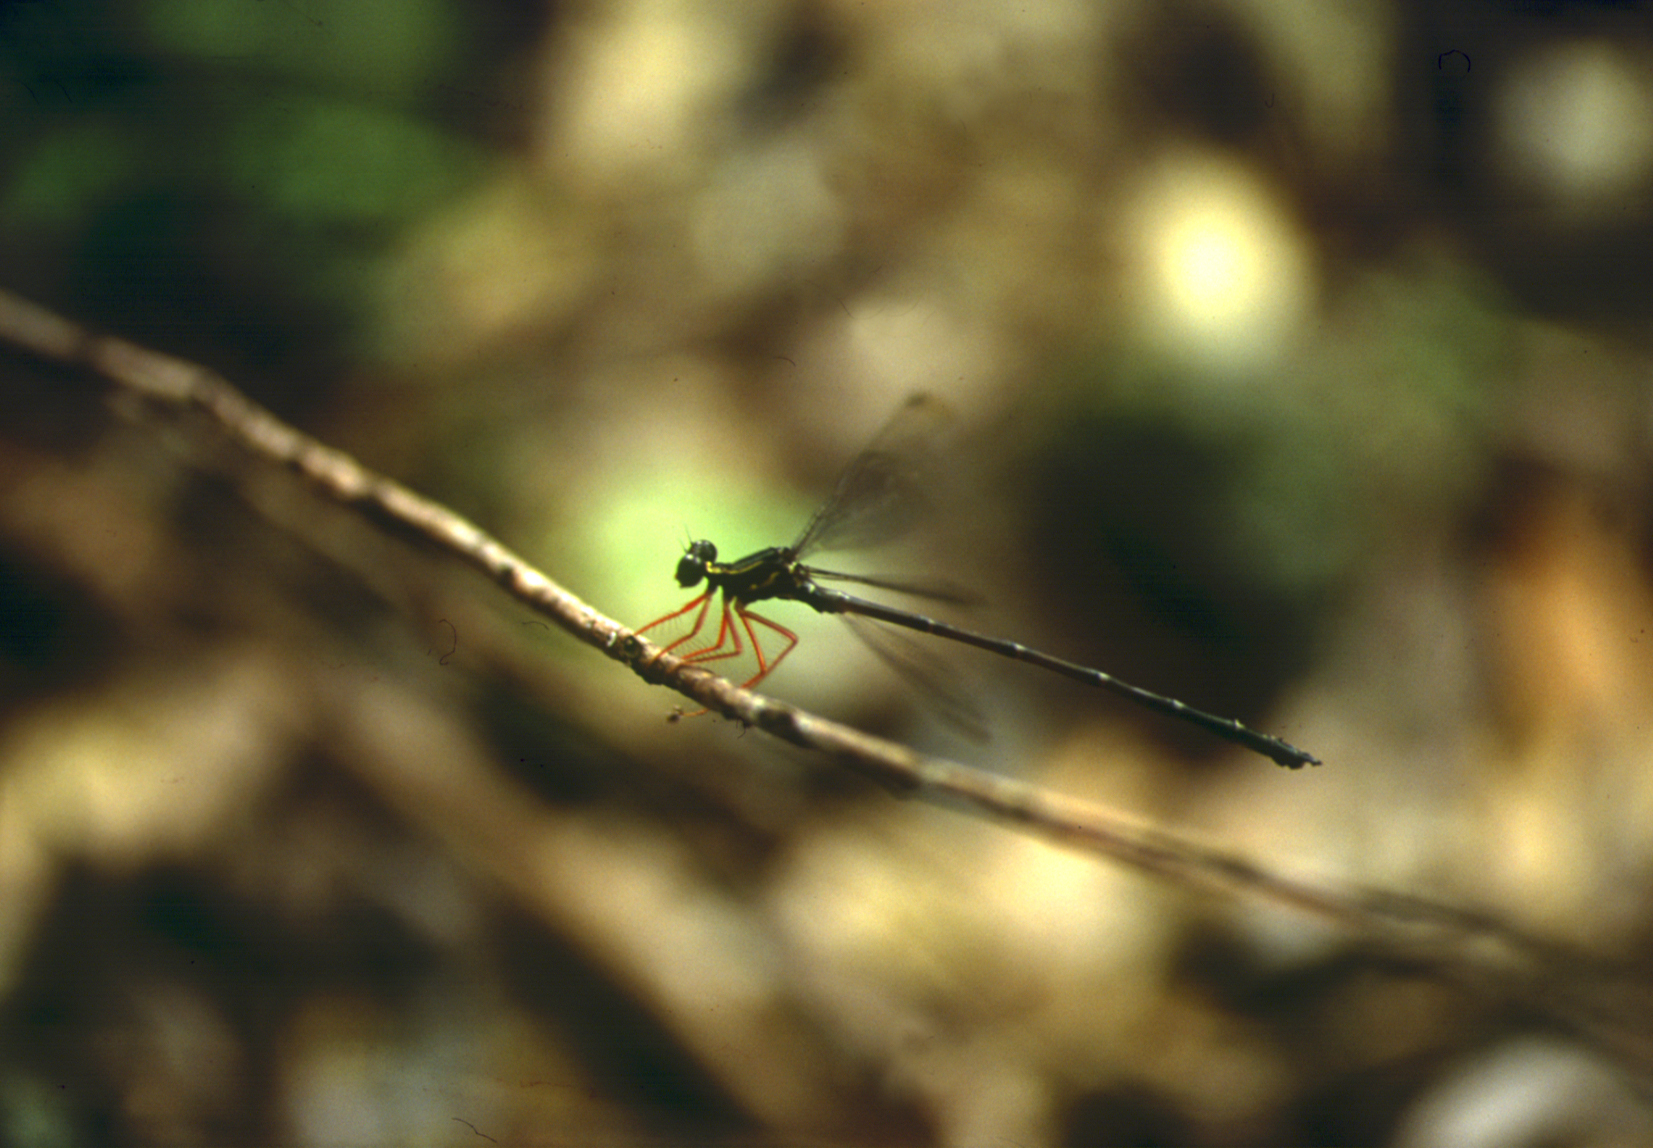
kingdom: Animalia
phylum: Arthropoda
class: Insecta
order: Odonata
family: Megapodagrionidae
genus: Rhipidolestes
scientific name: Rhipidolestes hiraoi
